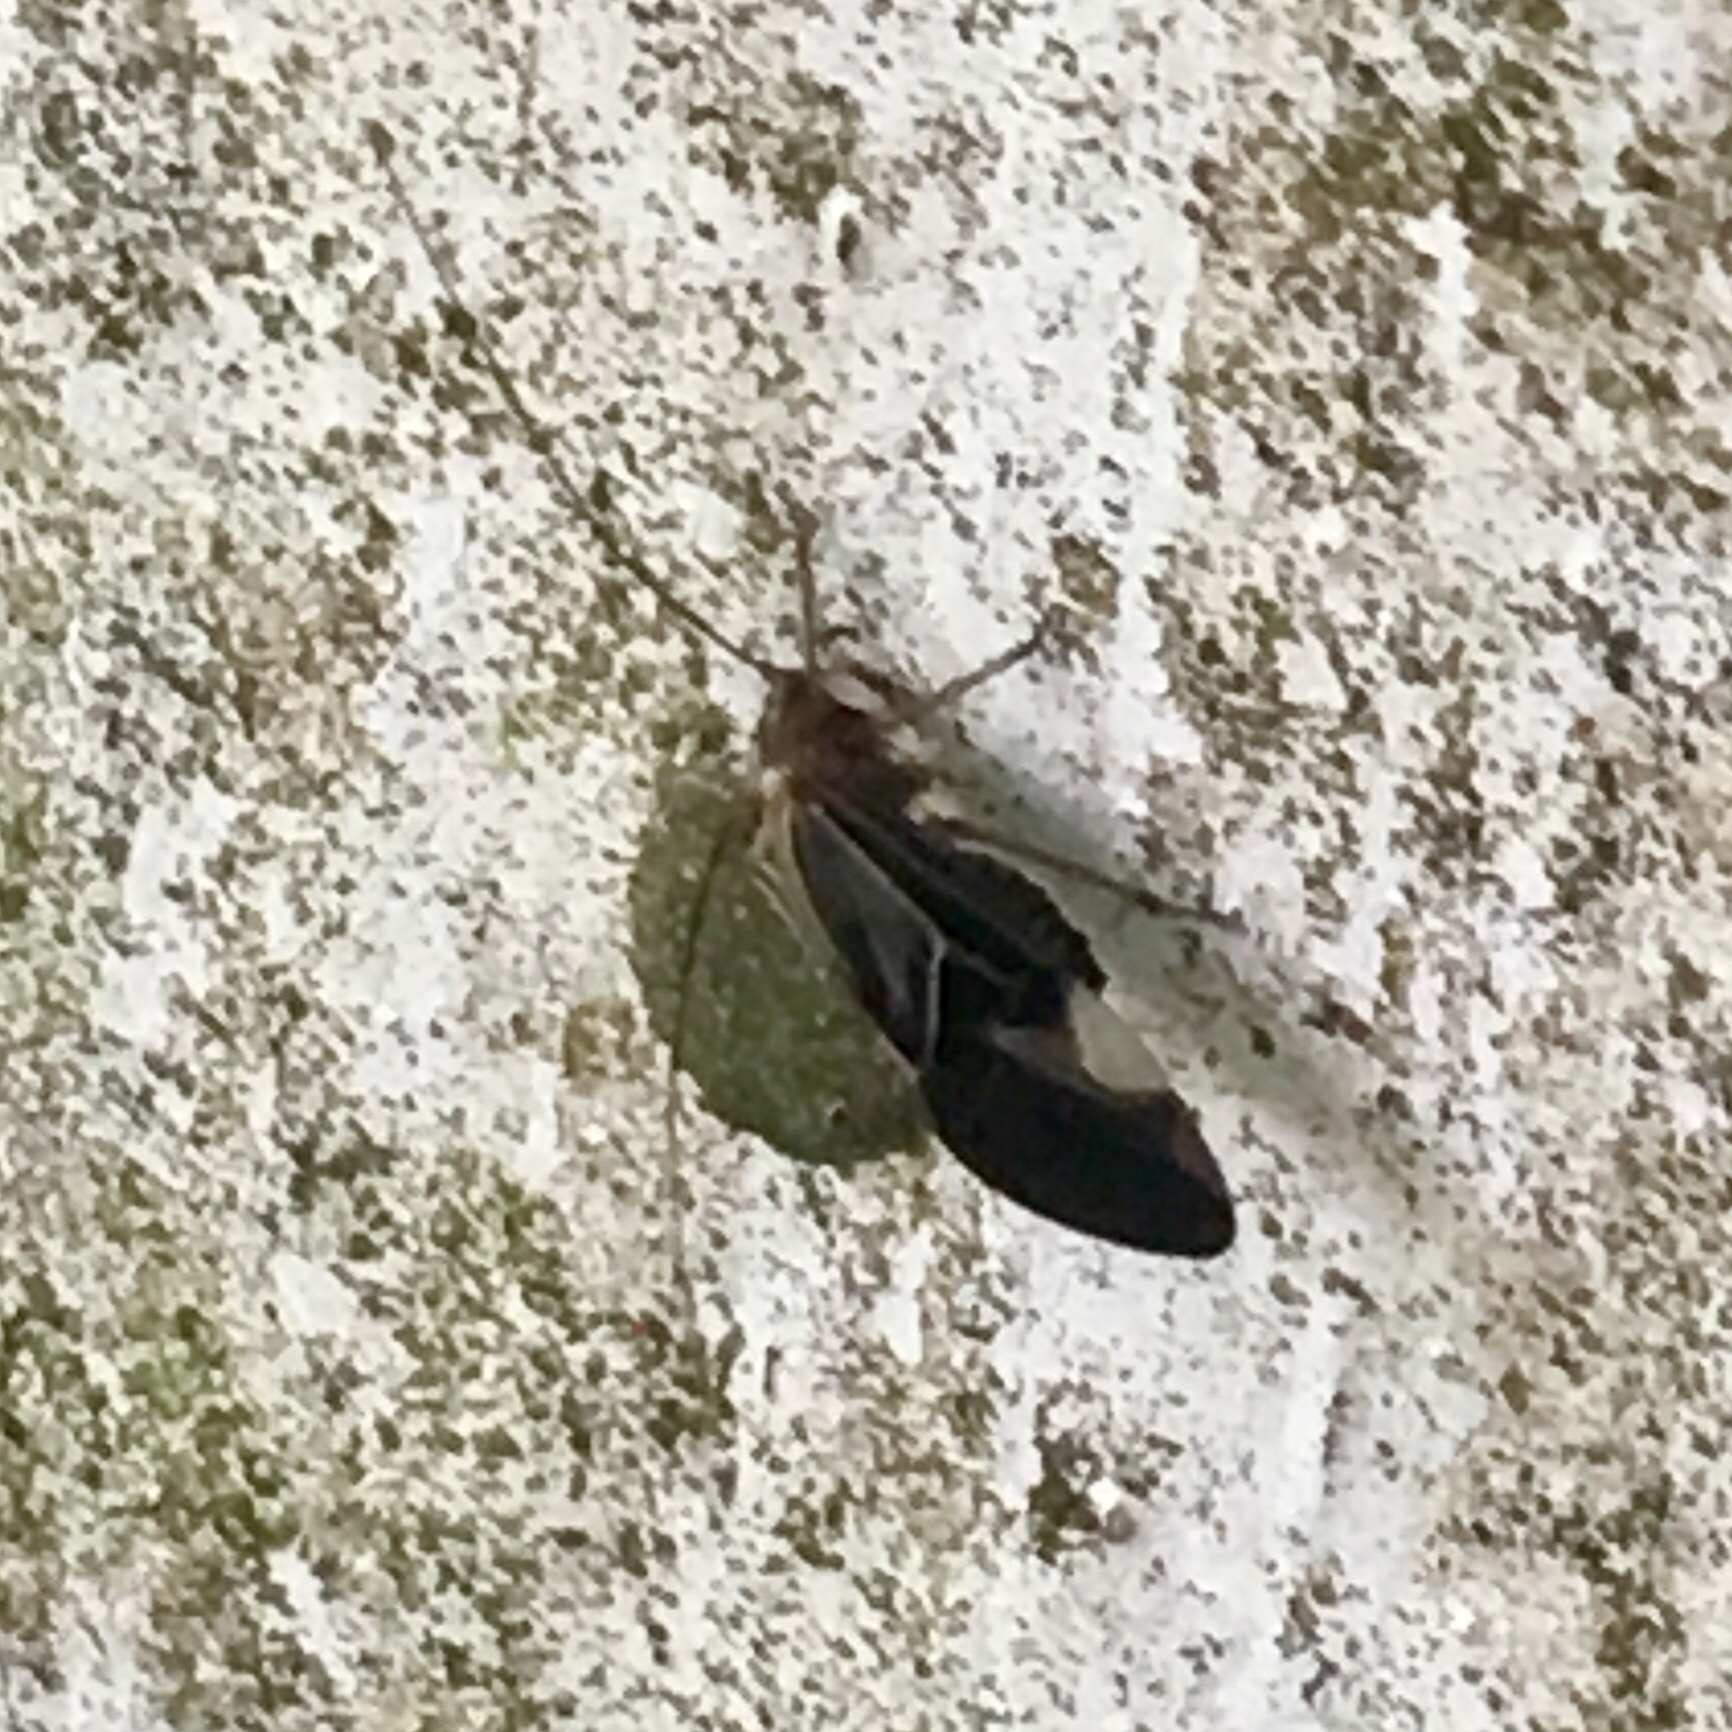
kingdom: Animalia
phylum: Arthropoda
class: Insecta
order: Psocodea
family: Psocidae
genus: Cerastipsocus
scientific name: Cerastipsocus venosus
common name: Tree cattle
